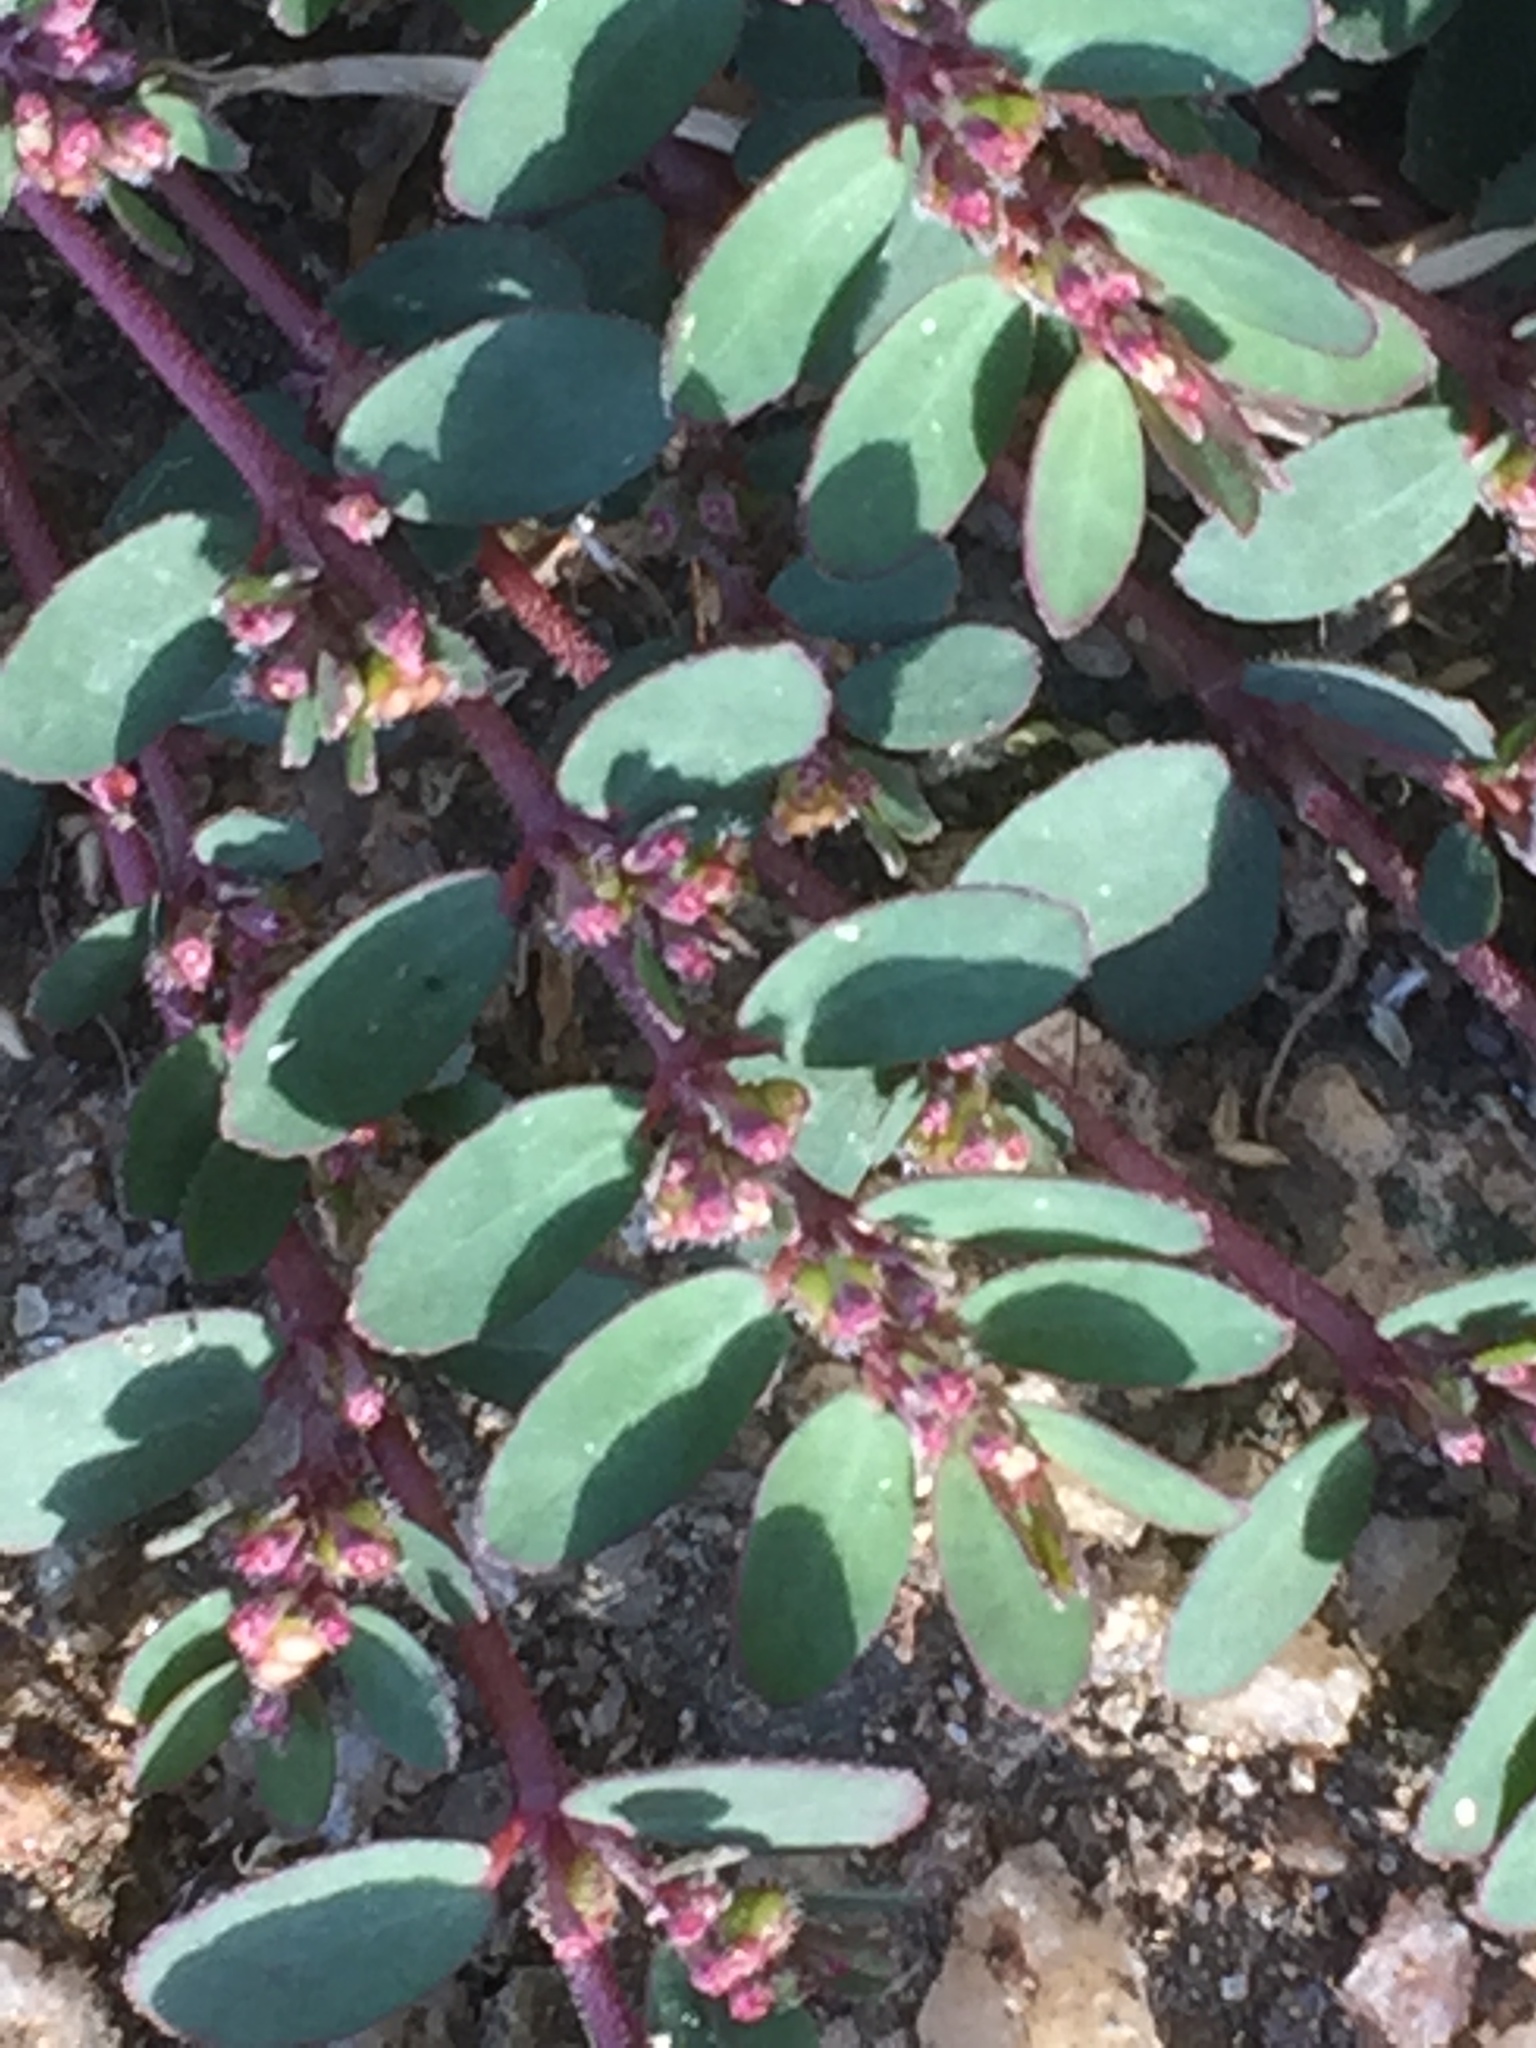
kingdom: Plantae
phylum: Tracheophyta
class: Magnoliopsida
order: Malpighiales
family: Euphorbiaceae
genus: Euphorbia
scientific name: Euphorbia prostrata
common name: Prostrate sandmat
